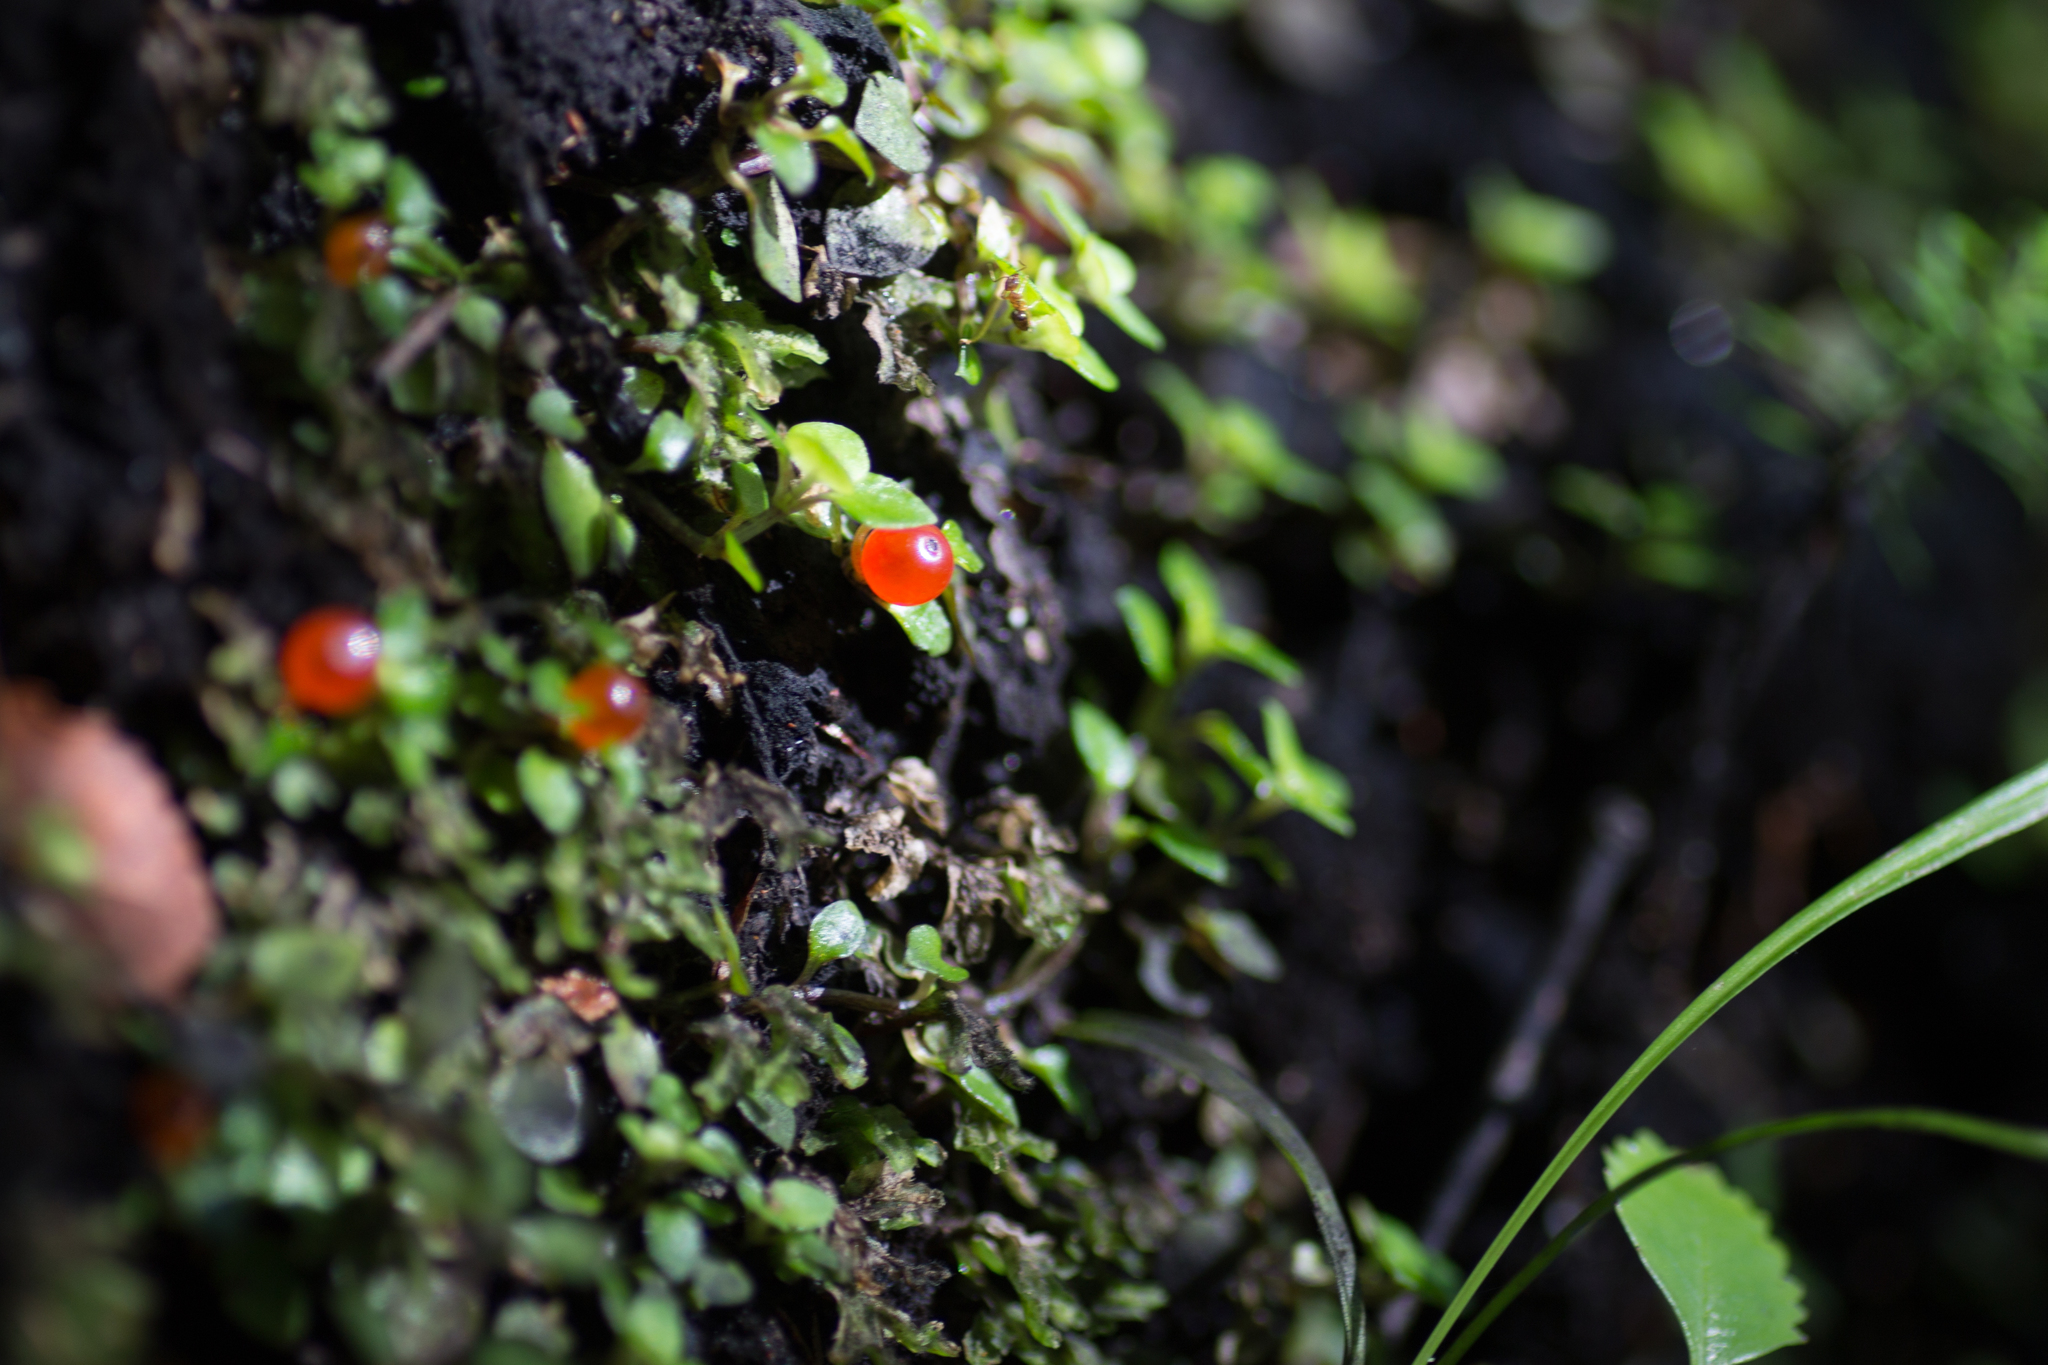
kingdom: Plantae
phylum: Tracheophyta
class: Magnoliopsida
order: Gentianales
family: Rubiaceae
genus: Nertera
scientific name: Nertera granadensis
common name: Beadplant
